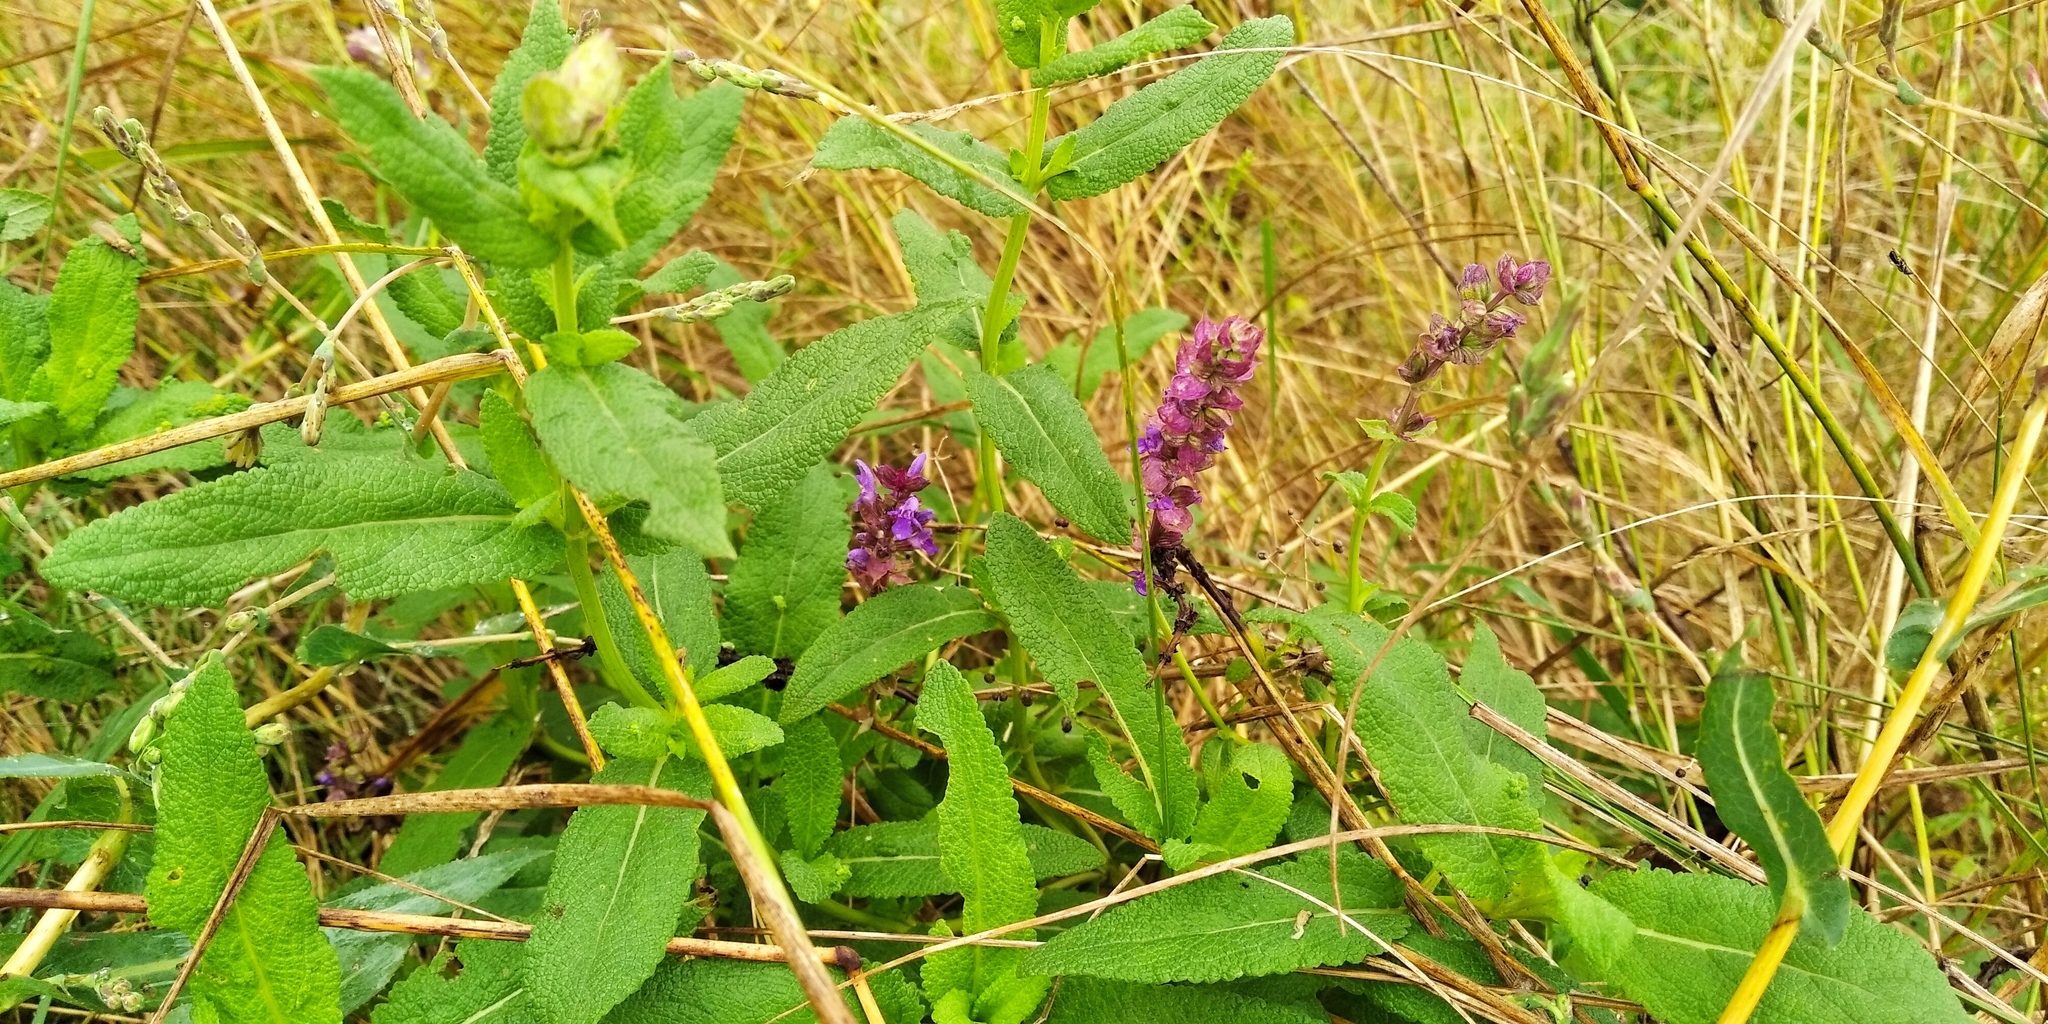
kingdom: Plantae
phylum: Tracheophyta
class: Magnoliopsida
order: Lamiales
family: Lamiaceae
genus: Salvia
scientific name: Salvia nemorosa
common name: Balkan clary
